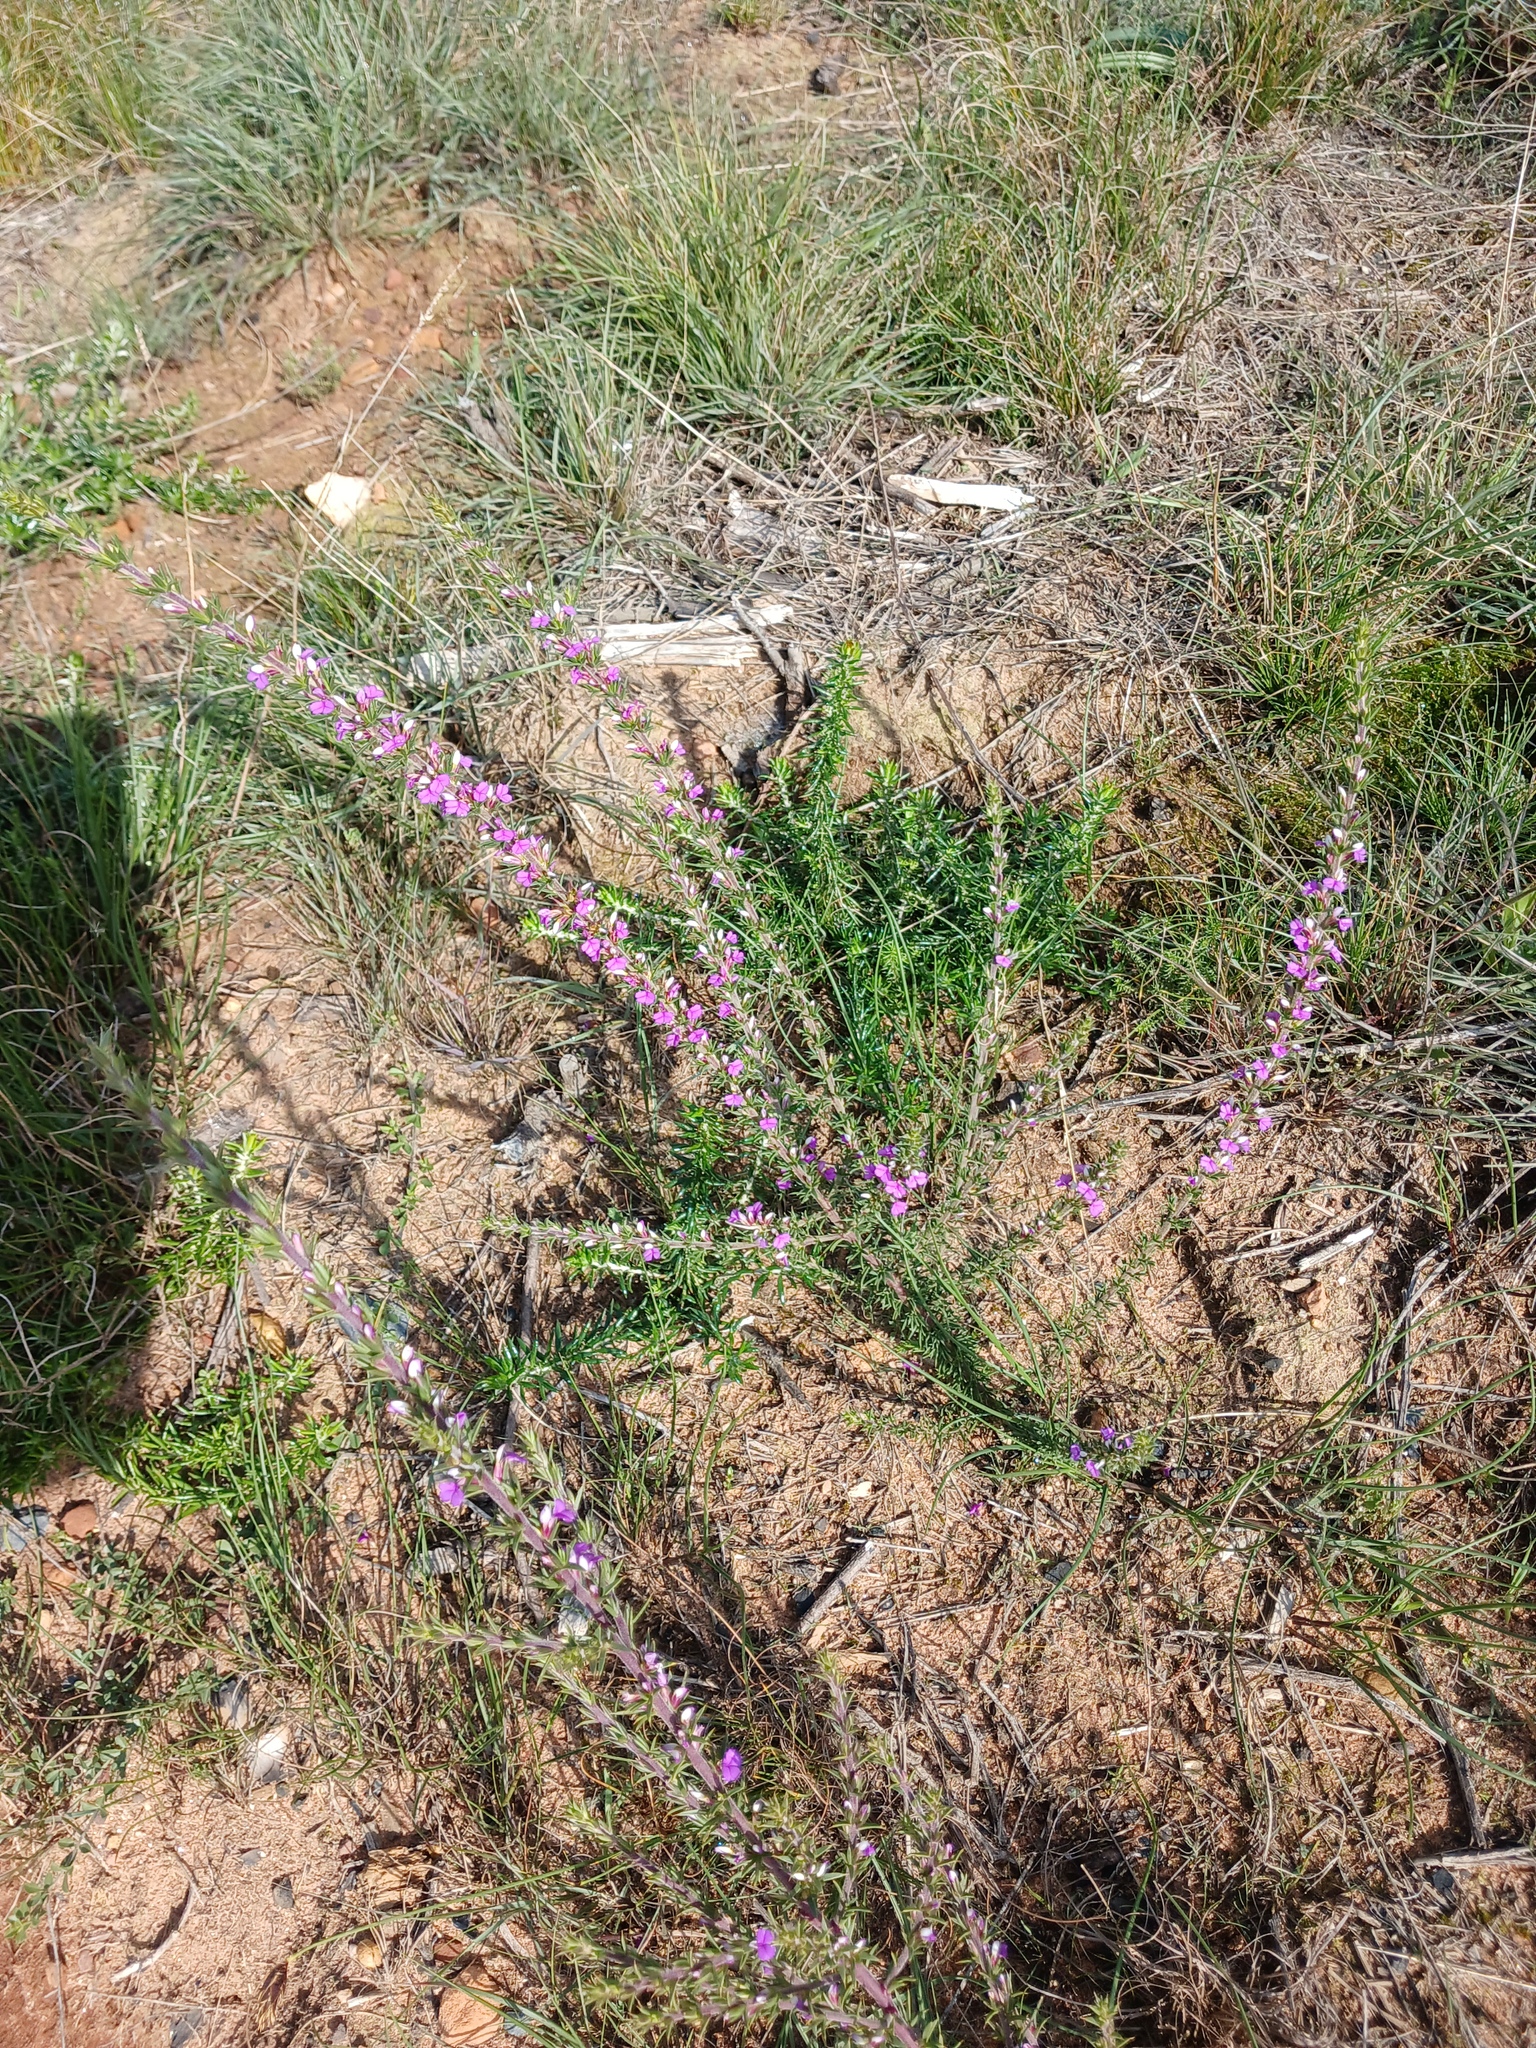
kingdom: Plantae
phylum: Tracheophyta
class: Magnoliopsida
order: Fabales
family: Polygalaceae
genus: Muraltia
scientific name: Muraltia heisteria
